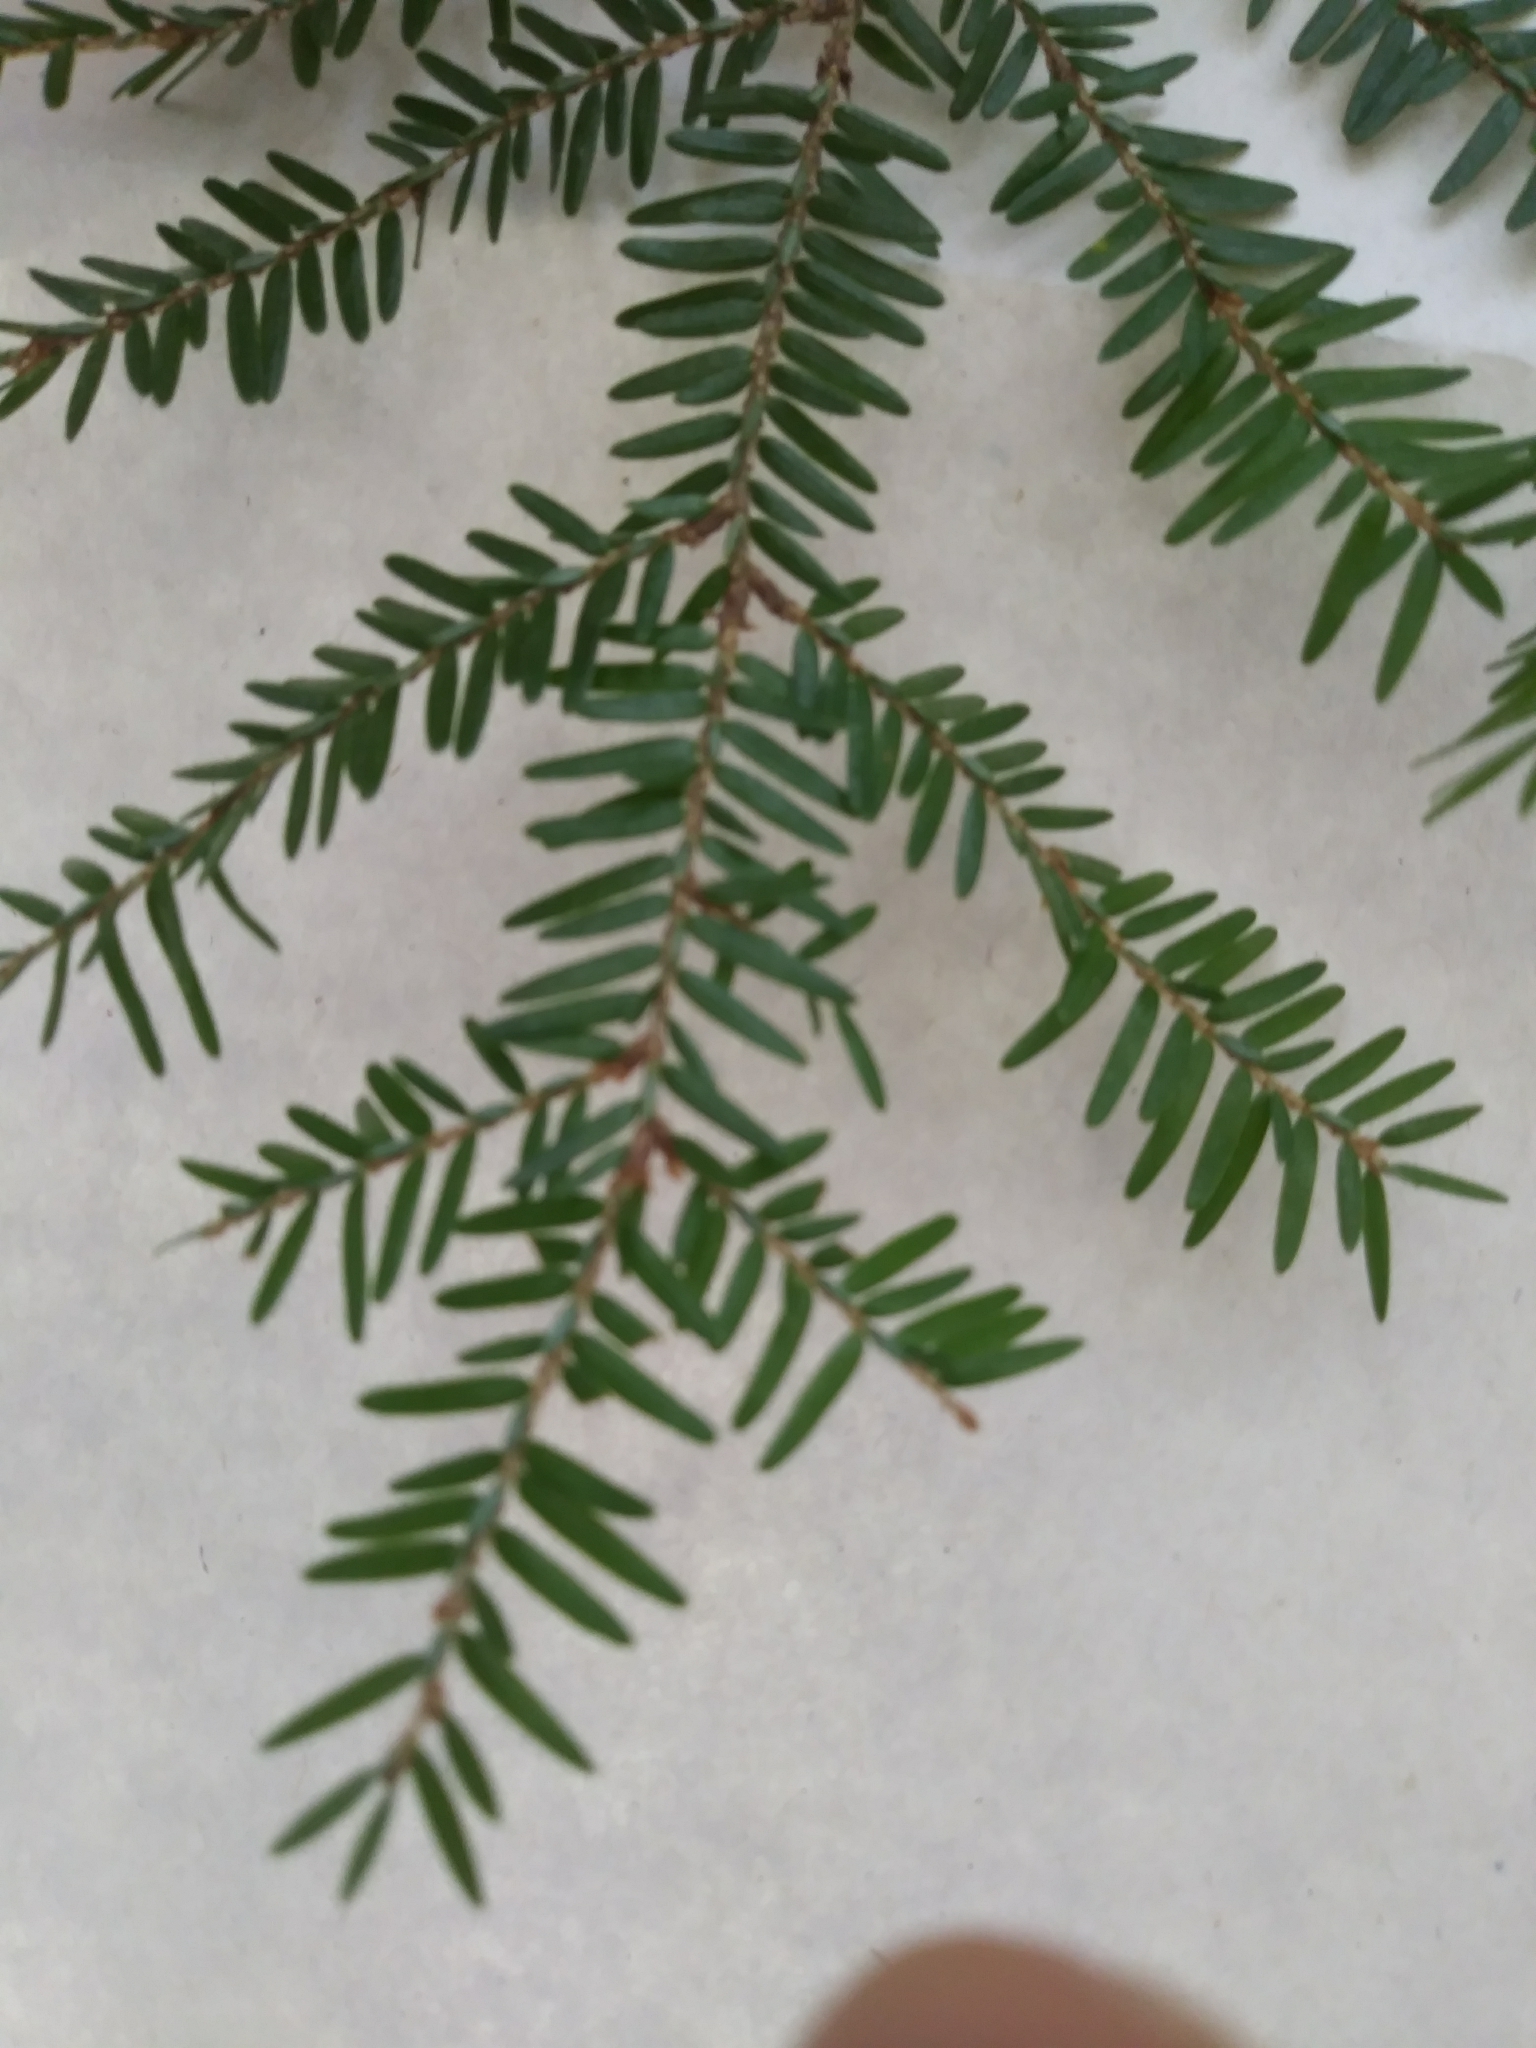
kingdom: Plantae
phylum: Tracheophyta
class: Pinopsida
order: Pinales
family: Pinaceae
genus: Tsuga
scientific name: Tsuga canadensis
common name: Eastern hemlock
